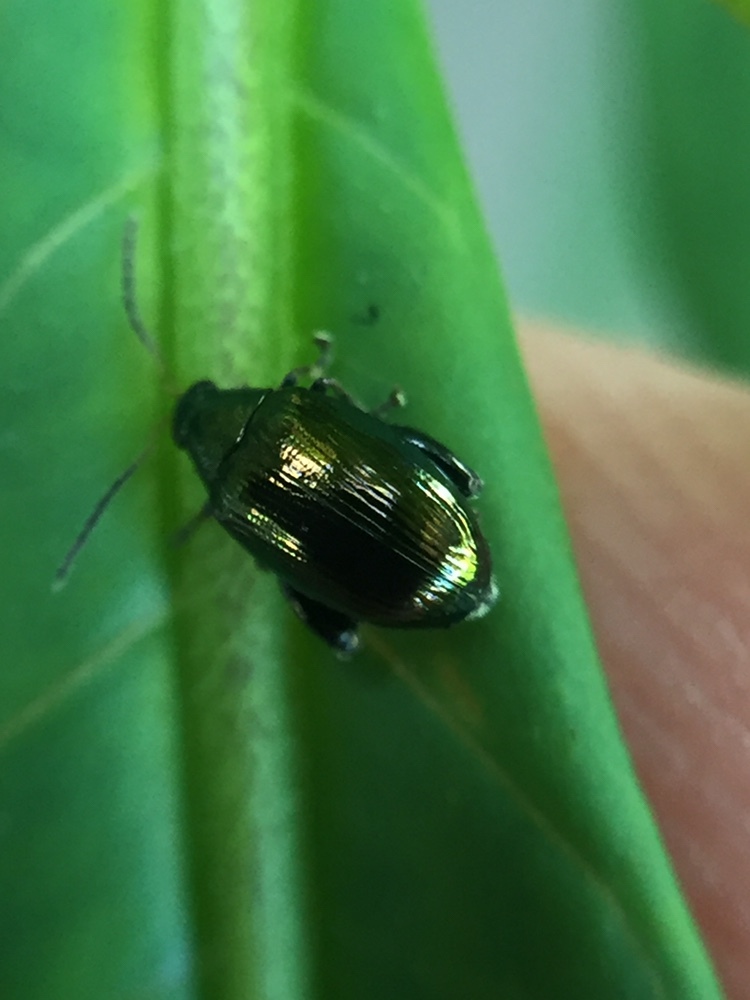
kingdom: Animalia
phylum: Arthropoda
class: Insecta
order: Coleoptera
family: Chrysomelidae
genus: Psylliodes
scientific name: Psylliodes brettinghami
